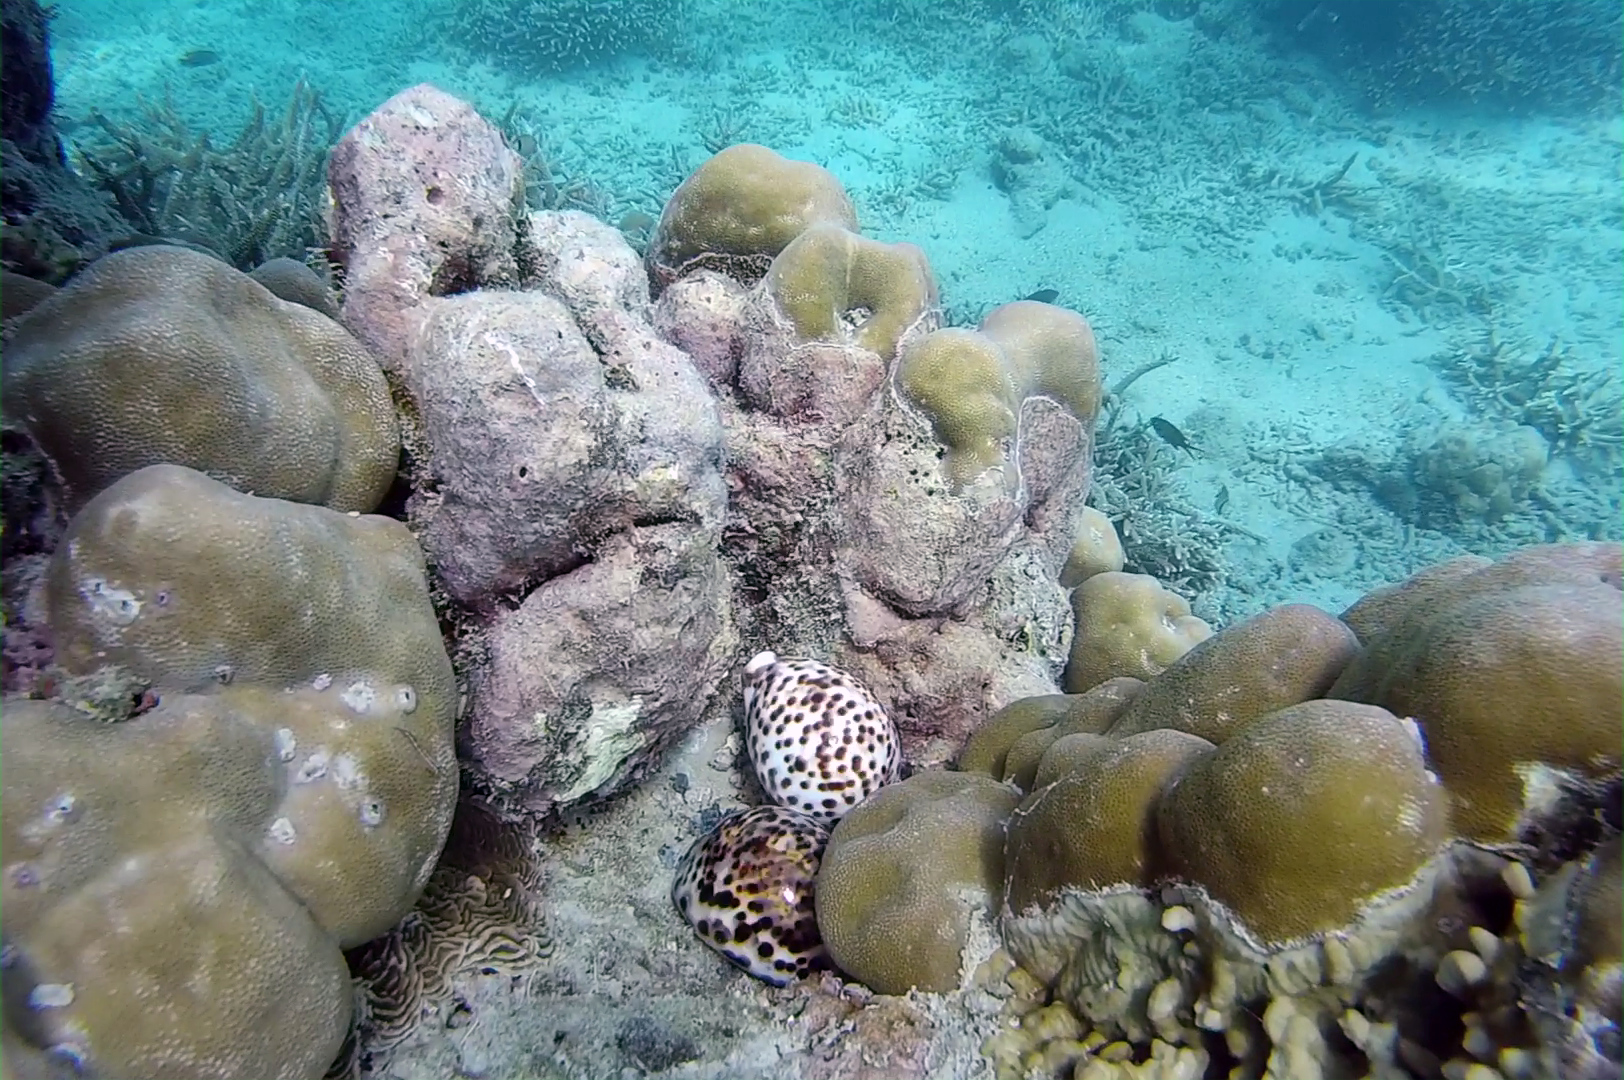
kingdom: Animalia
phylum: Mollusca
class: Gastropoda
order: Littorinimorpha
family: Cypraeidae
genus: Cypraea
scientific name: Cypraea tigris
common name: Tiger cowrie
